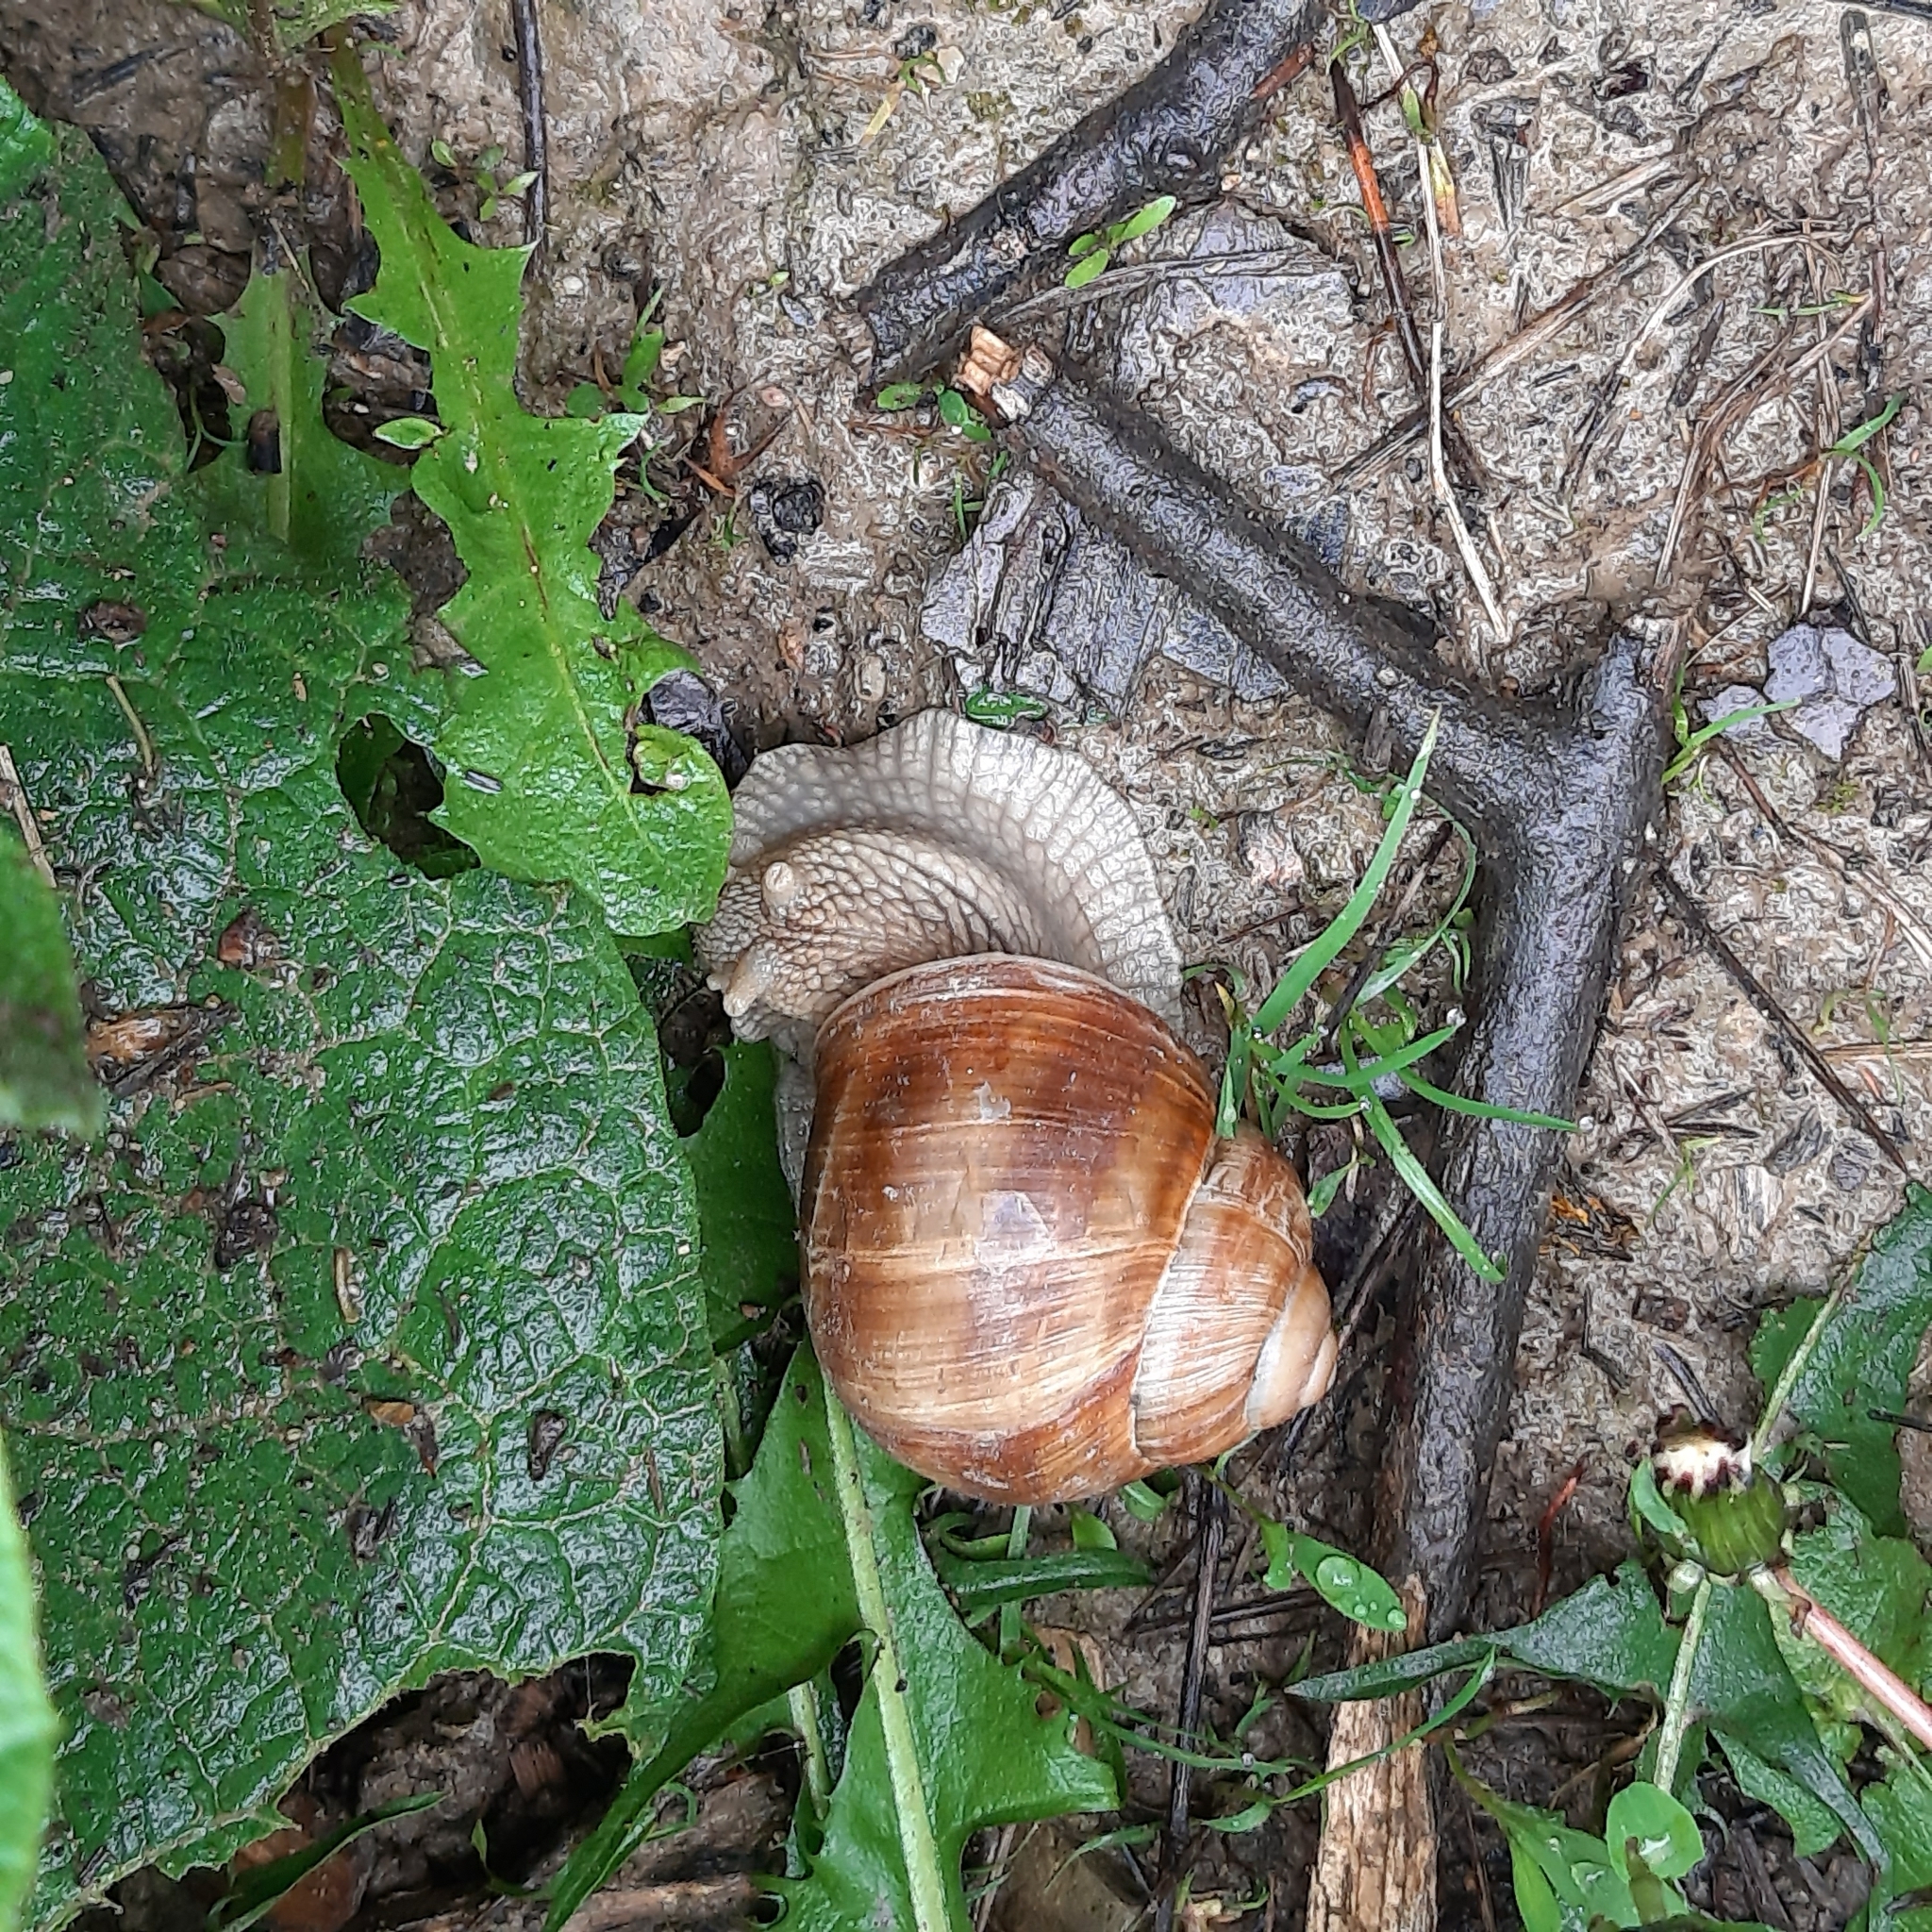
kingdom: Animalia
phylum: Mollusca
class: Gastropoda
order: Stylommatophora
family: Helicidae
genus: Helix
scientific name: Helix pomatia
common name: Roman snail
